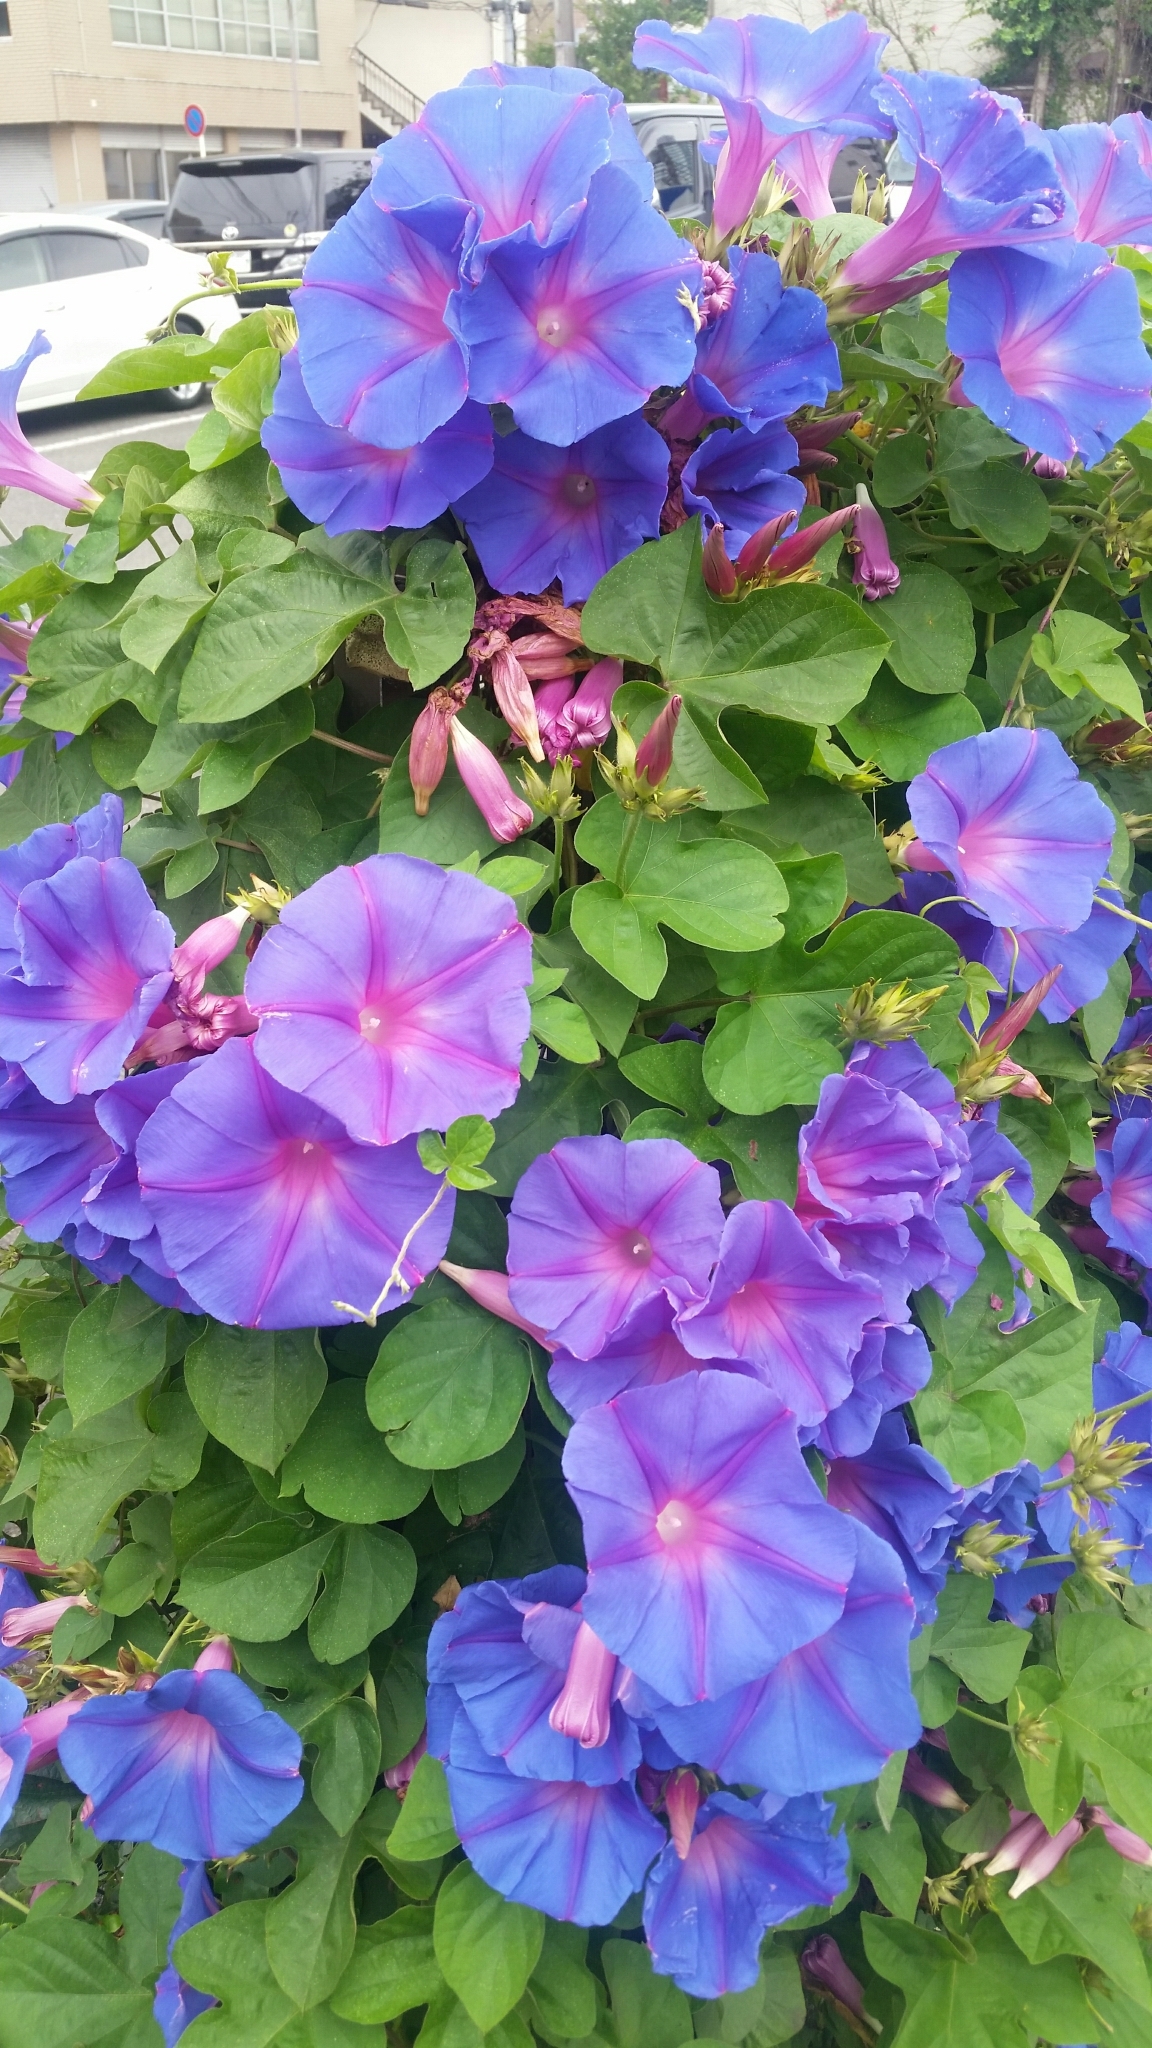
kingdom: Plantae
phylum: Tracheophyta
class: Magnoliopsida
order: Solanales
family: Convolvulaceae
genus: Ipomoea
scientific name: Ipomoea indica
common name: Blue dawnflower
